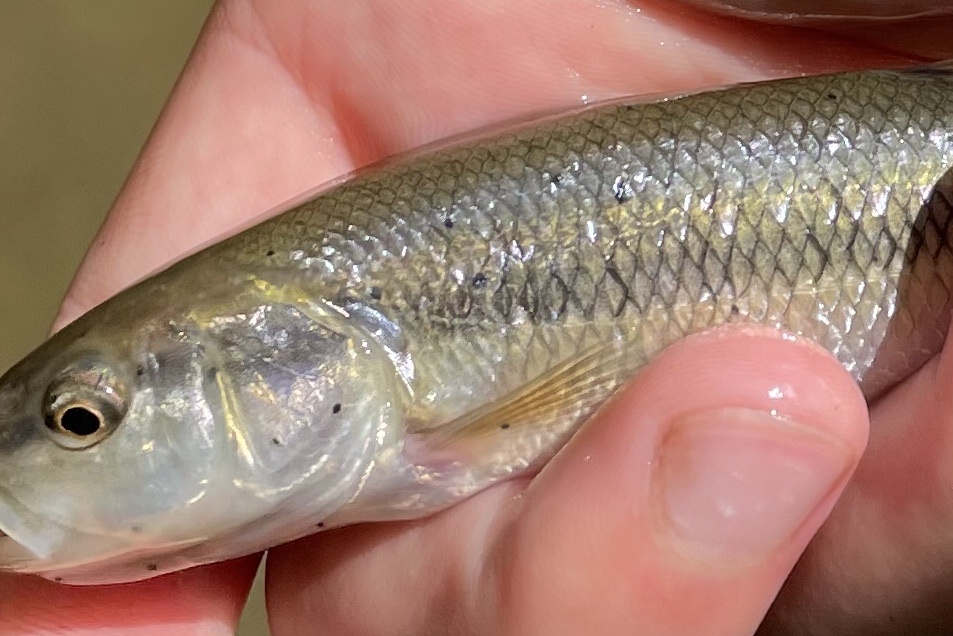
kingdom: Animalia
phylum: Platyhelminthes
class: Trematoda
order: Diplostomida
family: Diplostomidae
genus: Neascus
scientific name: Neascus
